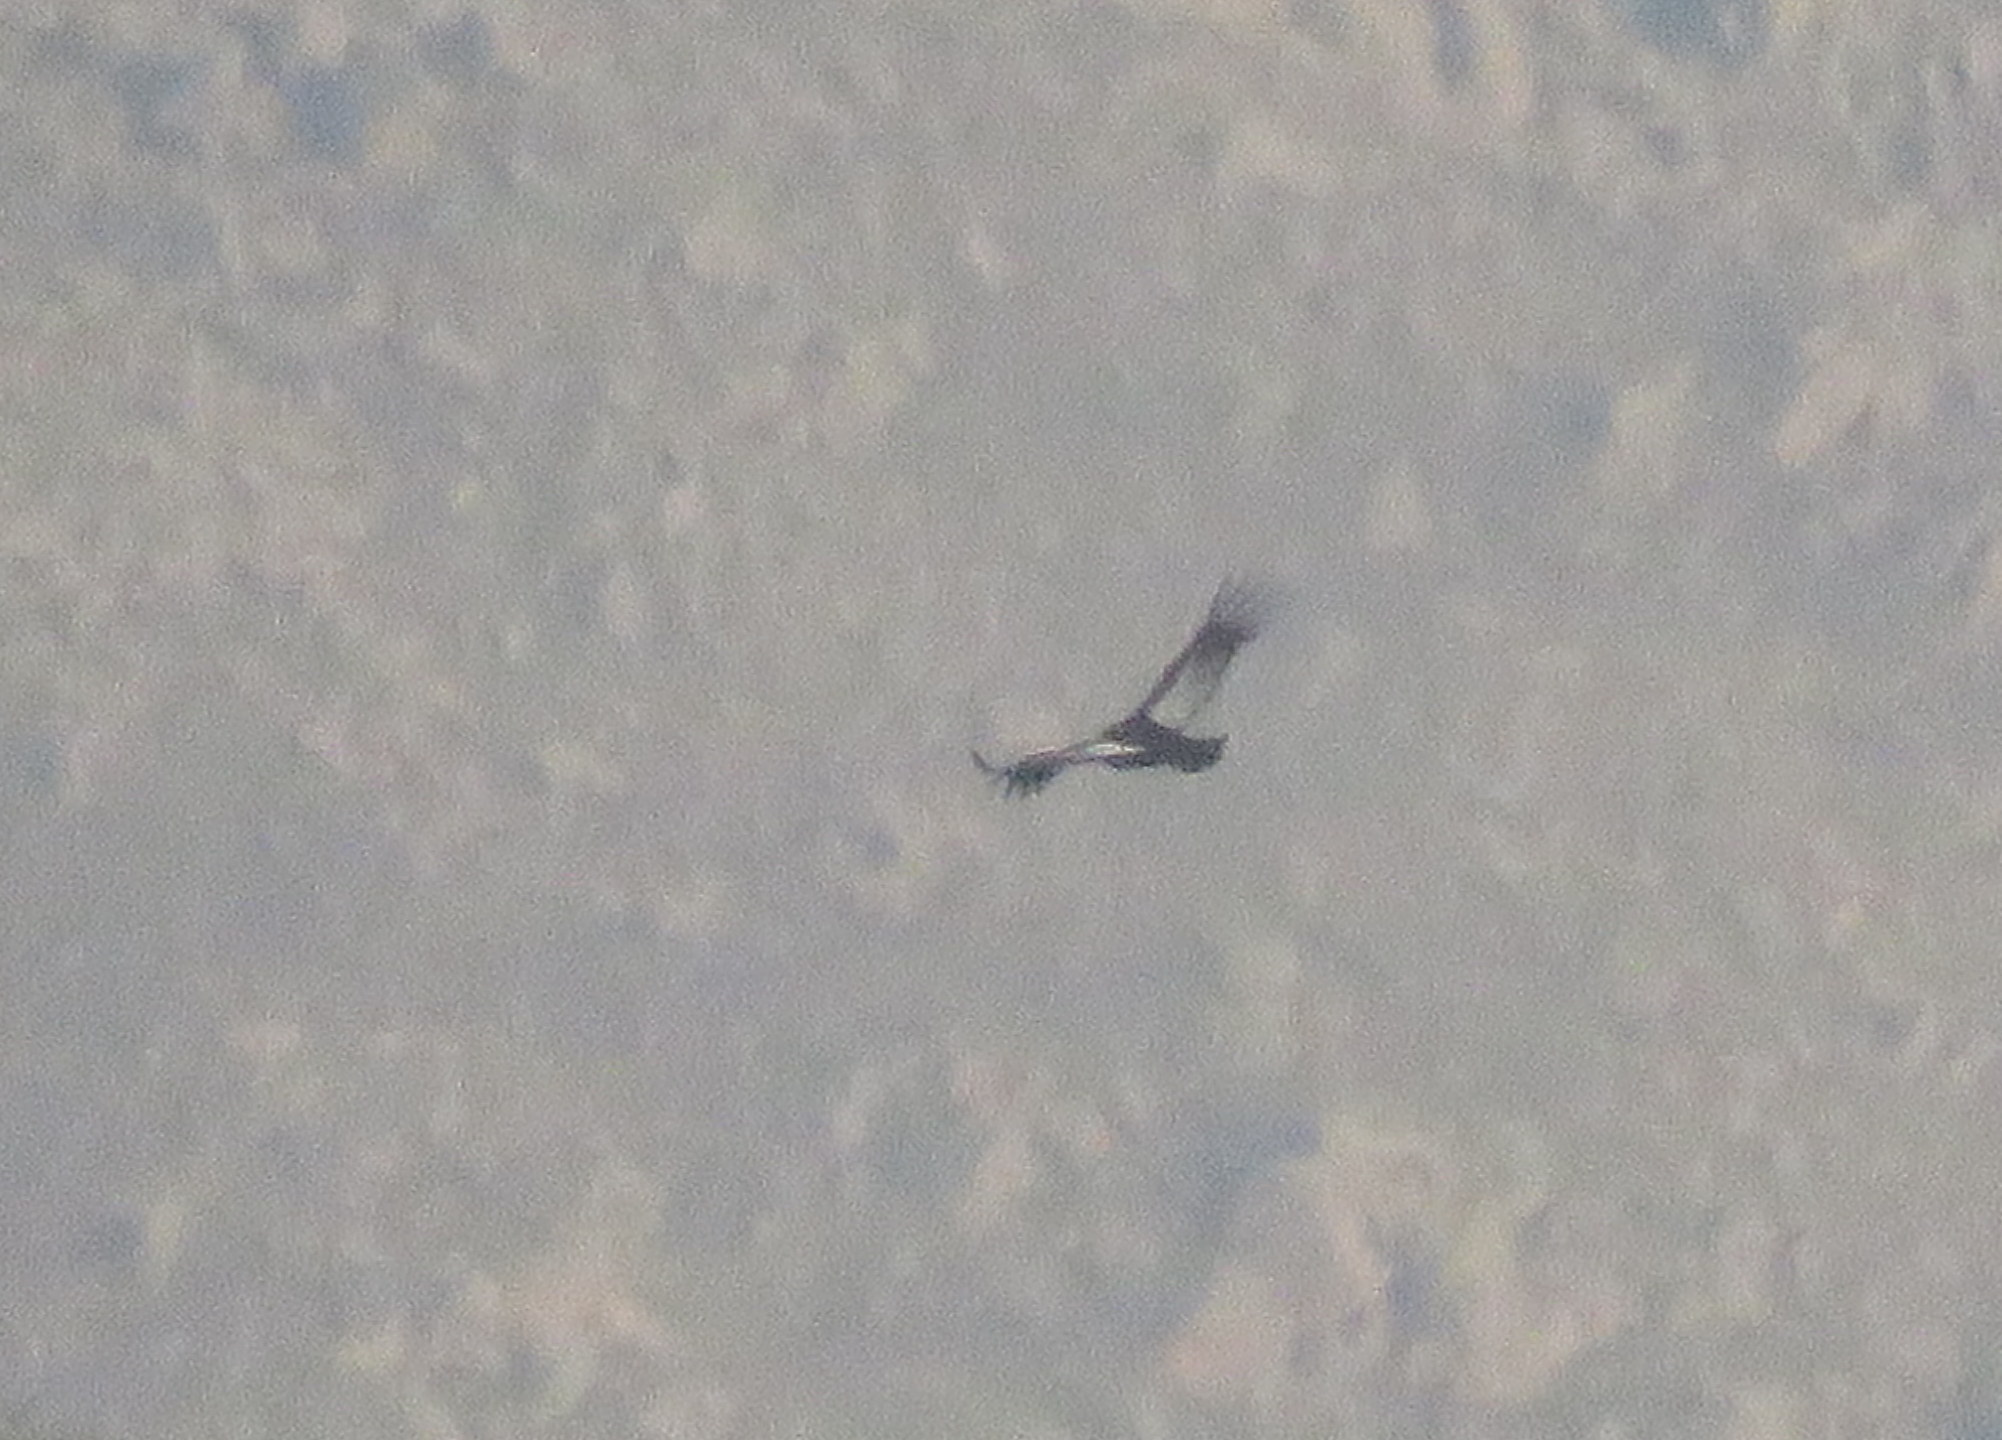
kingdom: Animalia
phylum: Chordata
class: Aves
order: Accipitriformes
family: Cathartidae
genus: Vultur
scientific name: Vultur gryphus
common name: Andean condor
